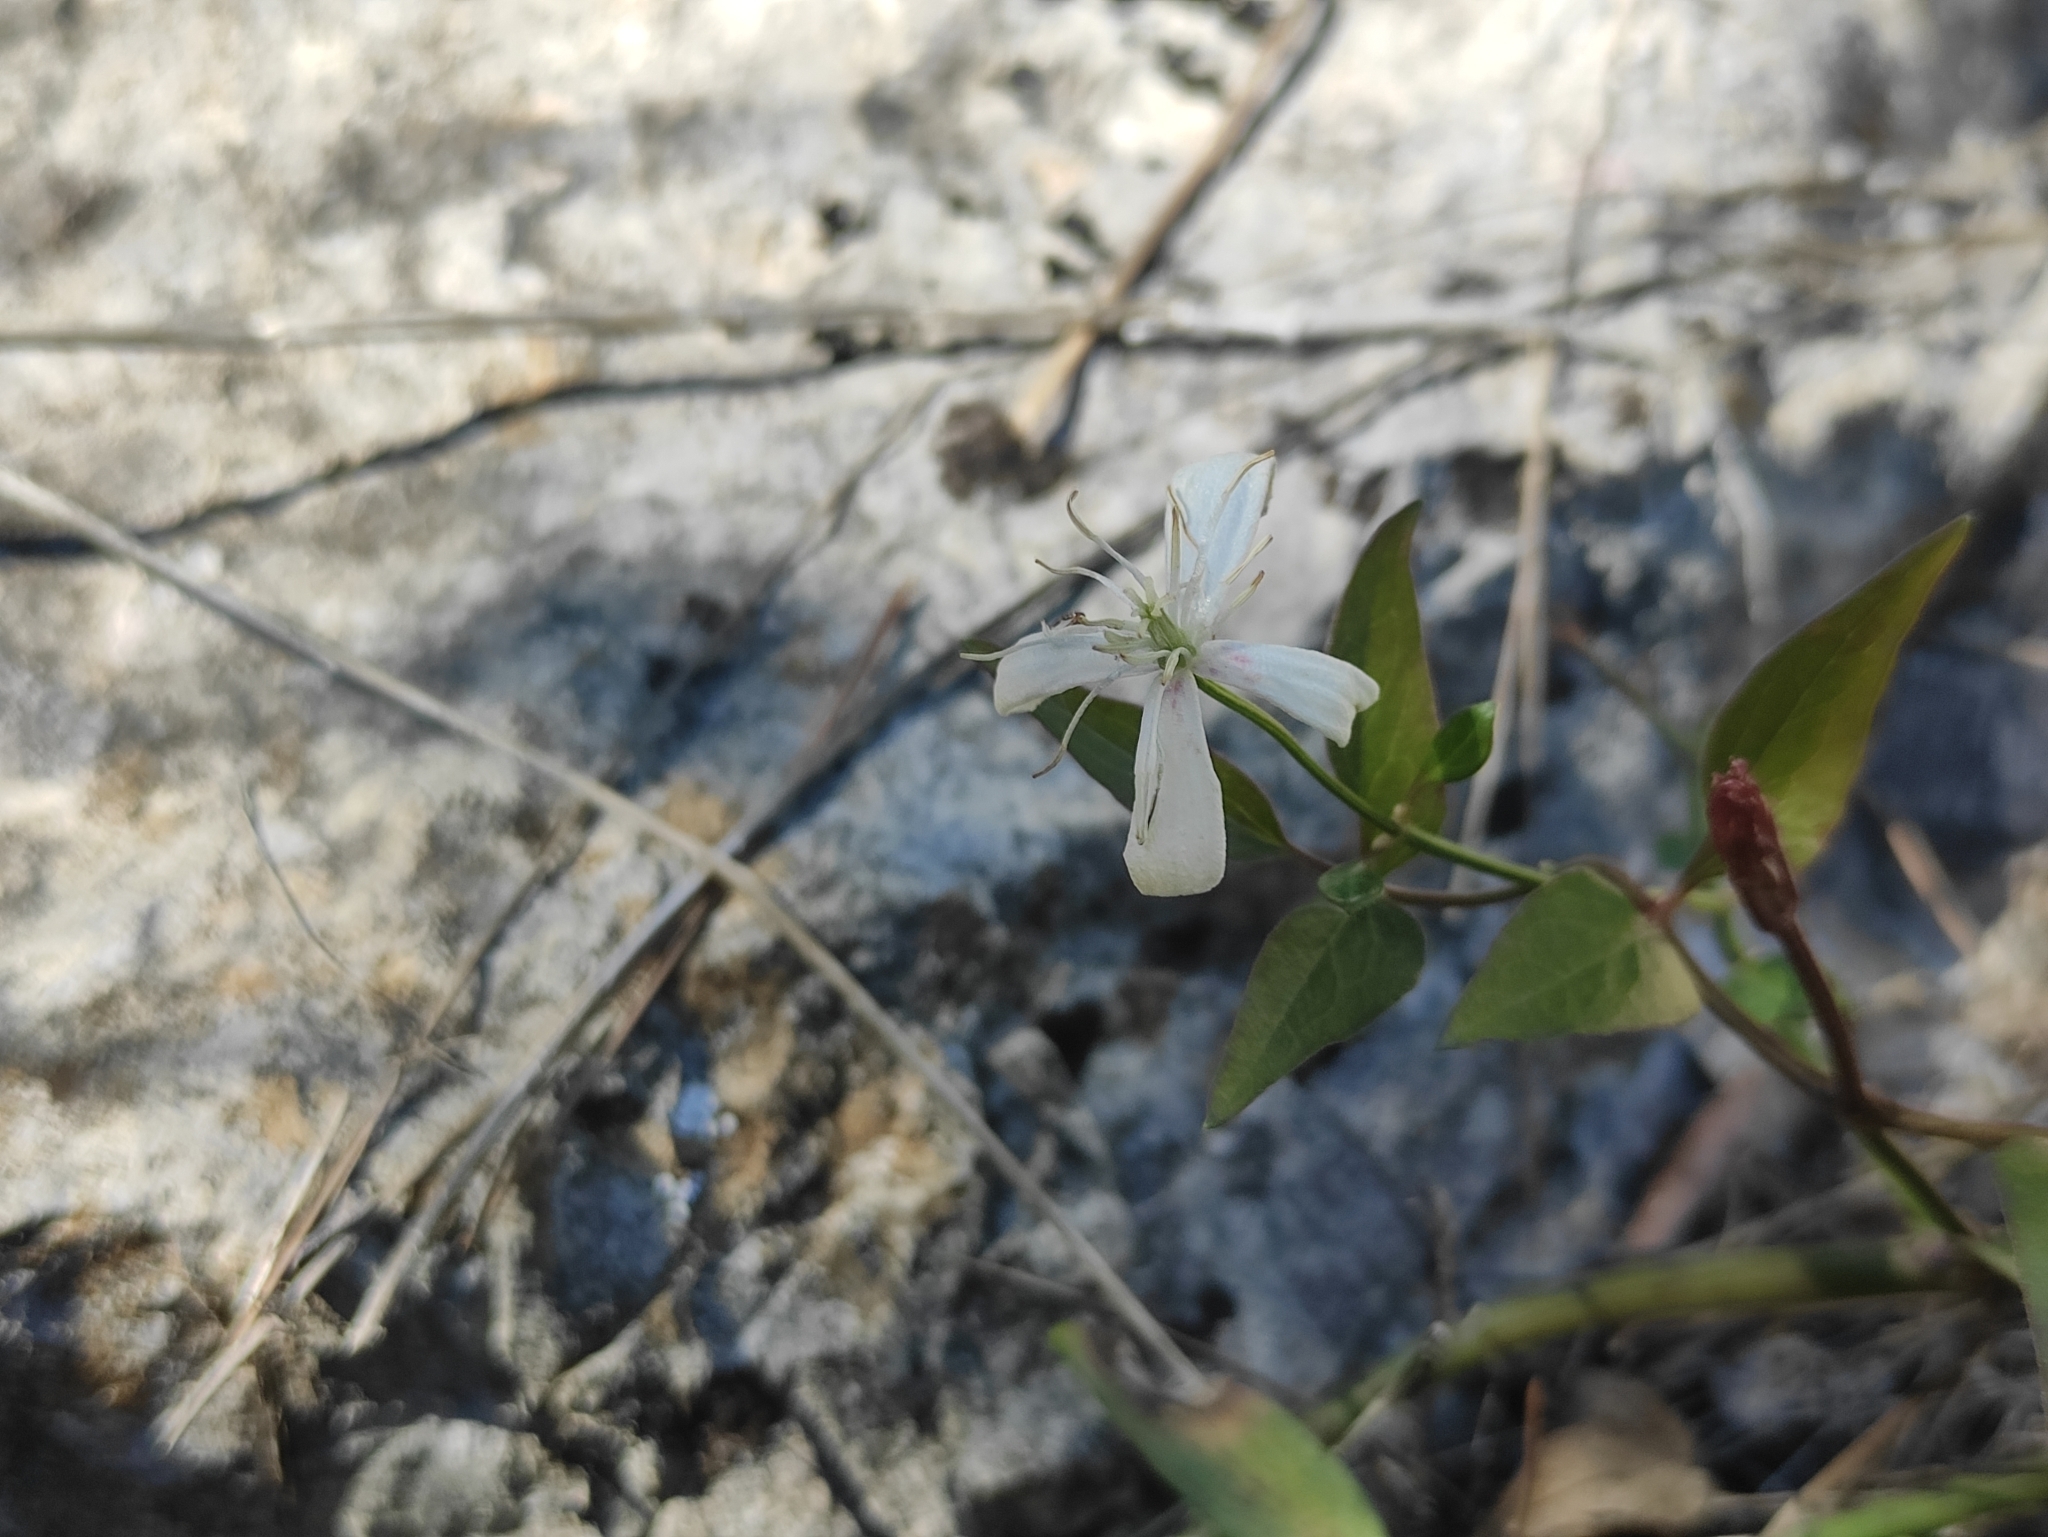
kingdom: Plantae
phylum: Tracheophyta
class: Magnoliopsida
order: Ranunculales
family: Ranunculaceae
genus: Clematis
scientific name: Clematis flammula
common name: Virgin's-bower
